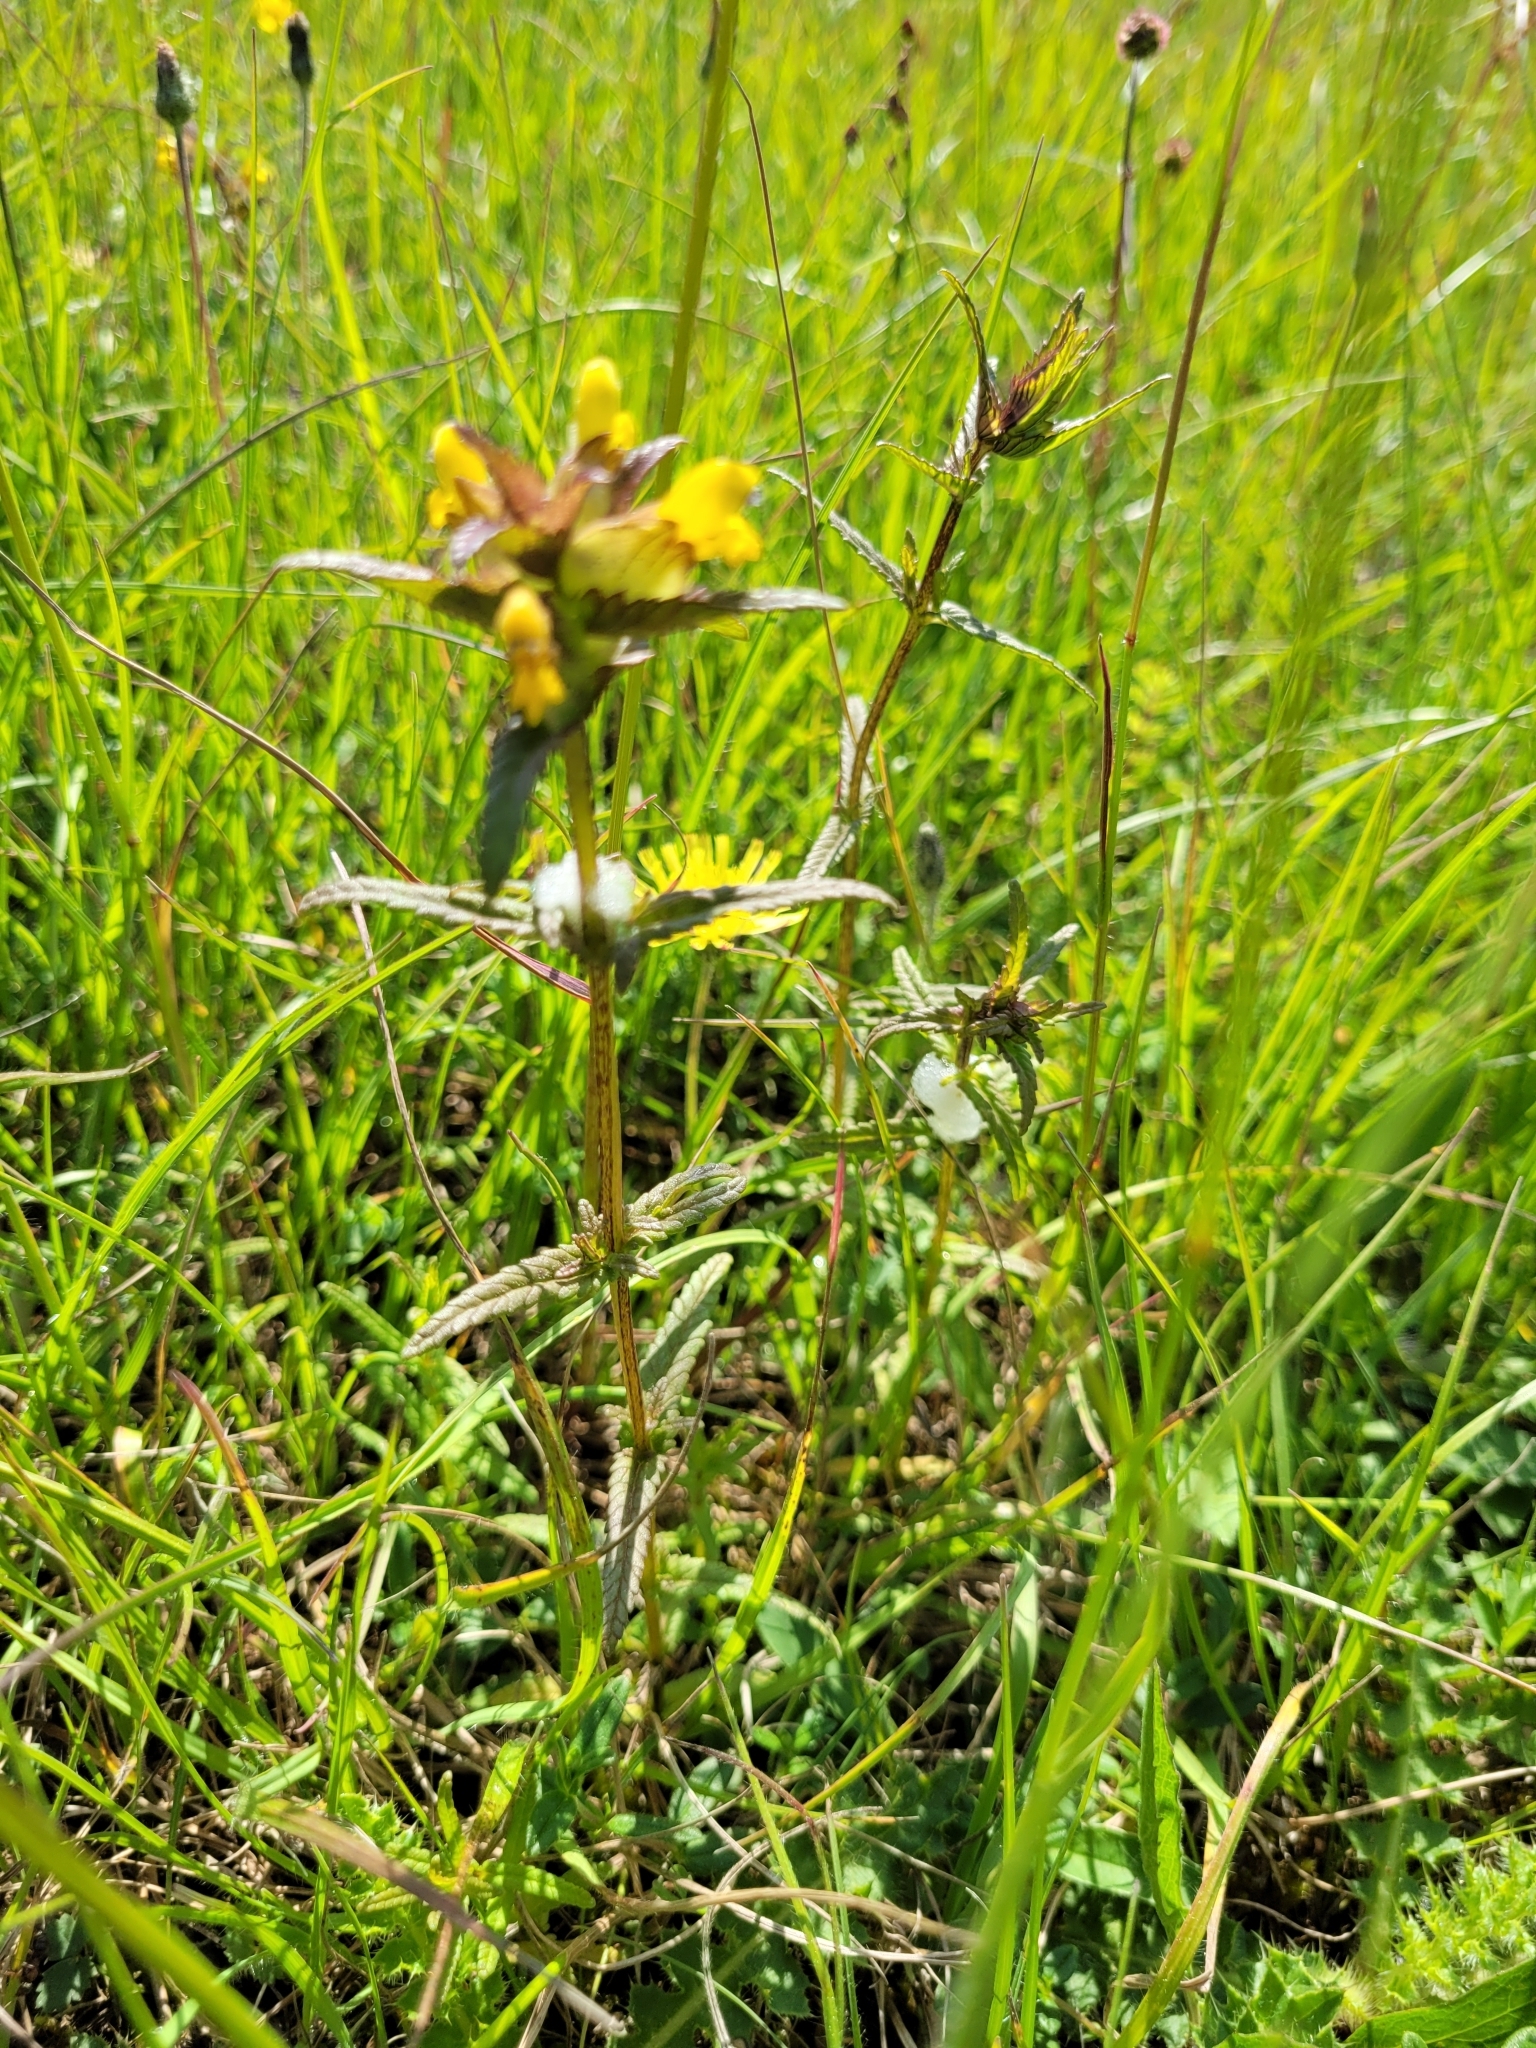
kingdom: Plantae
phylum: Tracheophyta
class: Magnoliopsida
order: Lamiales
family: Orobanchaceae
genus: Rhinanthus
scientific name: Rhinanthus minor
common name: Yellow-rattle
